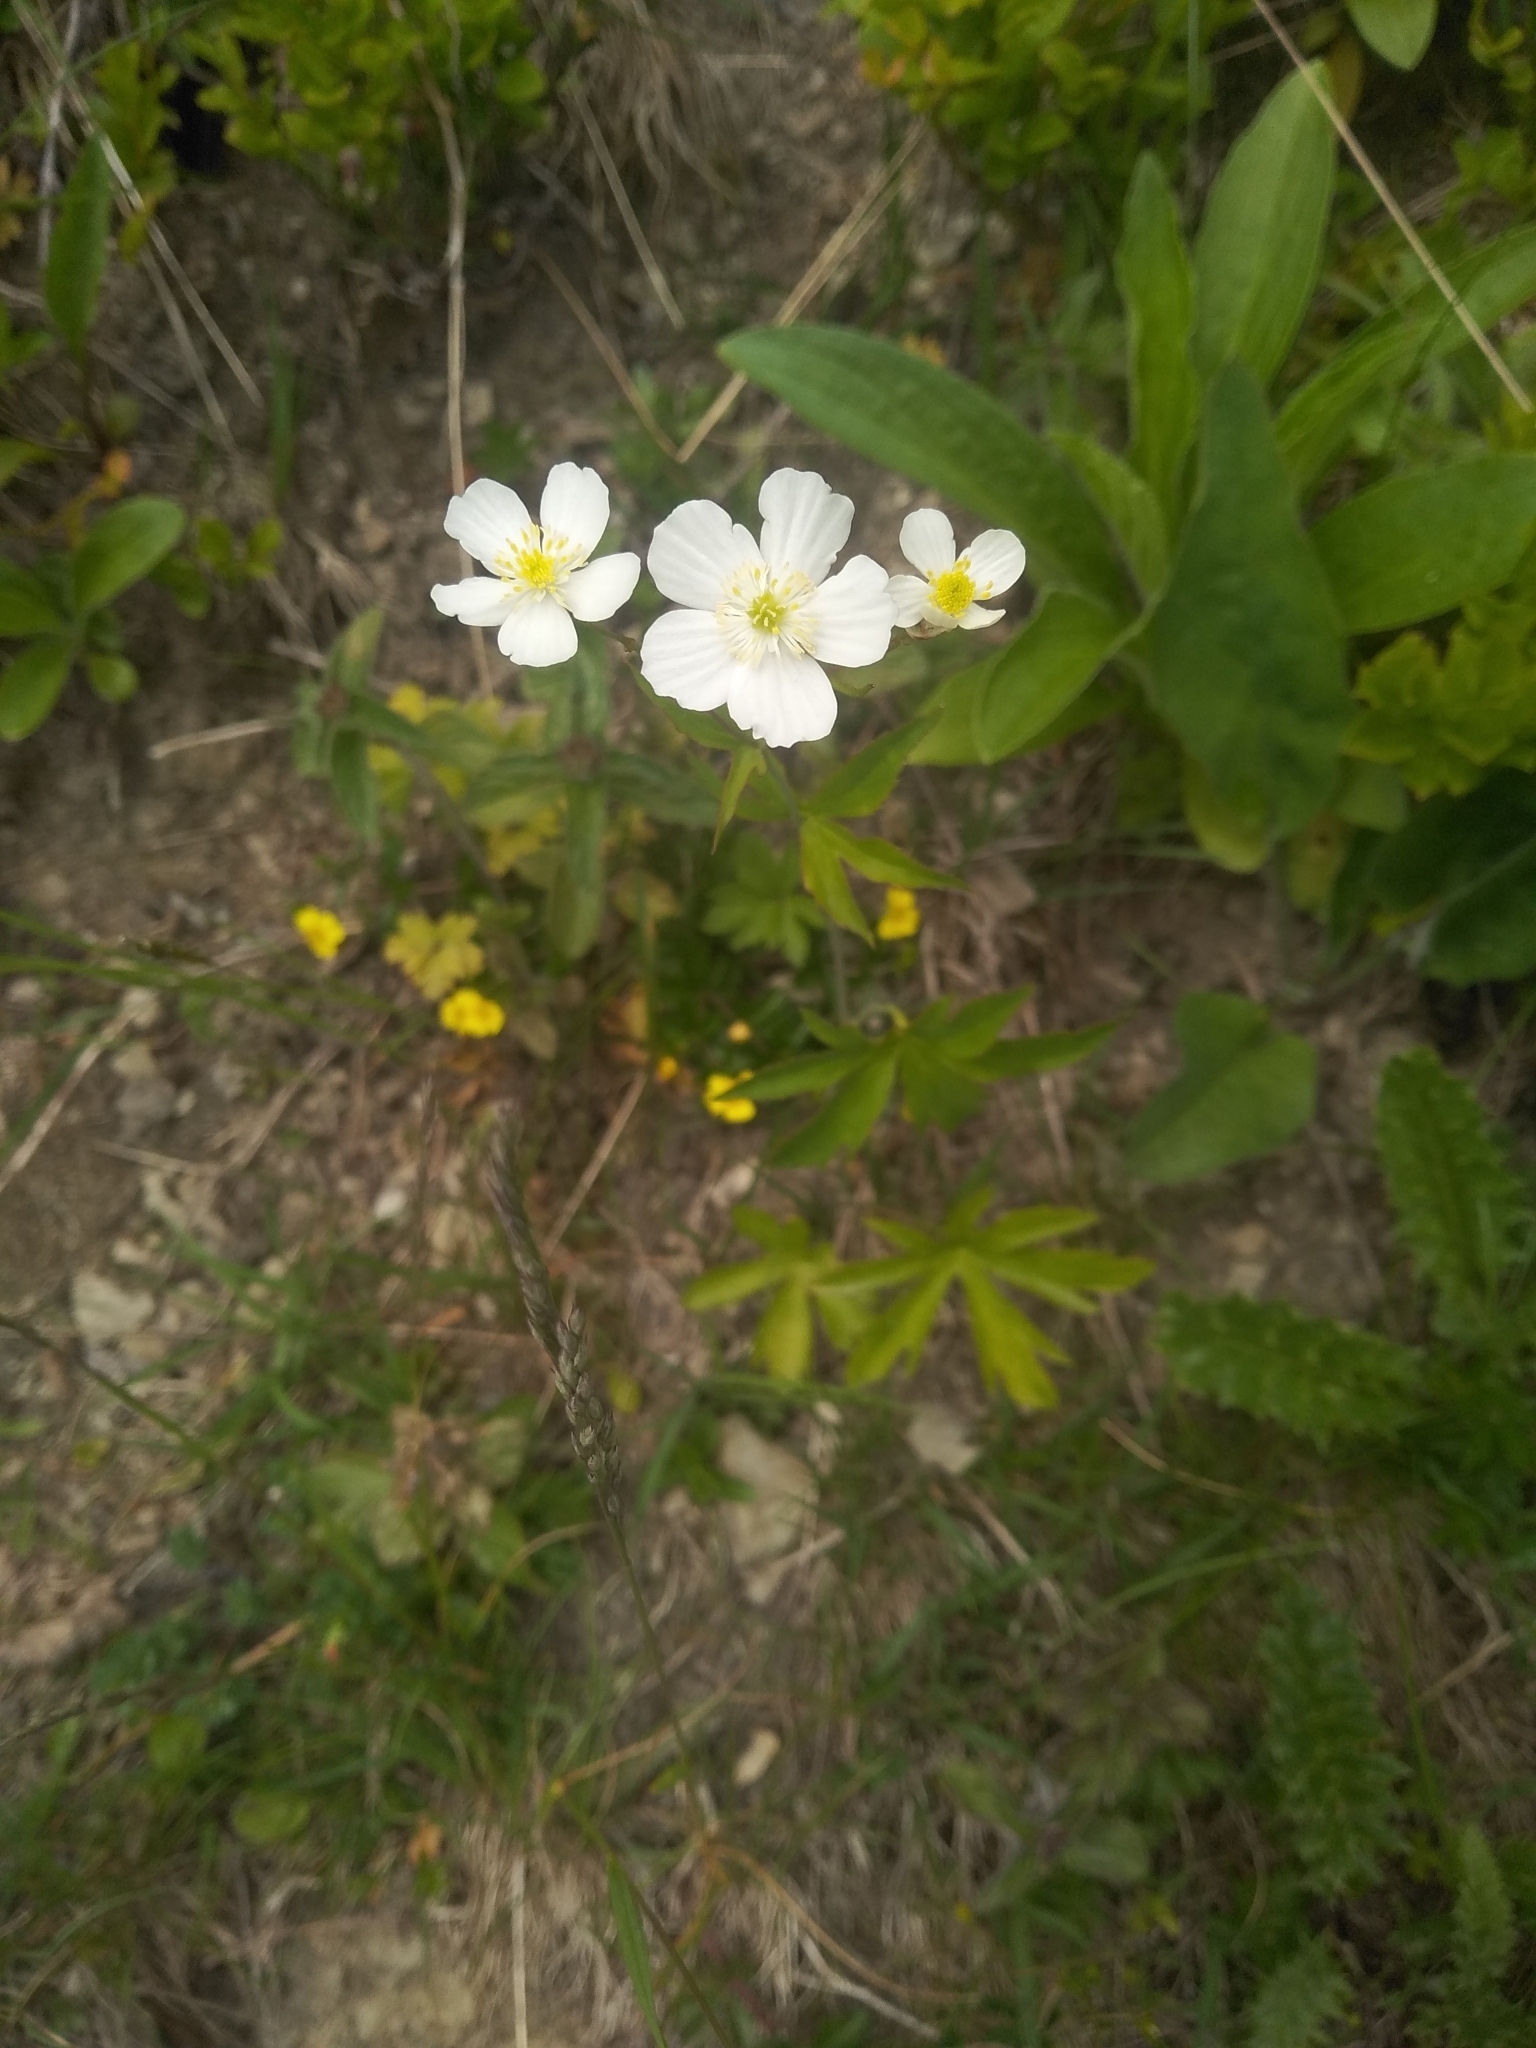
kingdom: Plantae
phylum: Tracheophyta
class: Magnoliopsida
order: Ranunculales
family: Ranunculaceae
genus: Ranunculus
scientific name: Ranunculus aconitifolius
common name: Aconite-leaved buttercup
